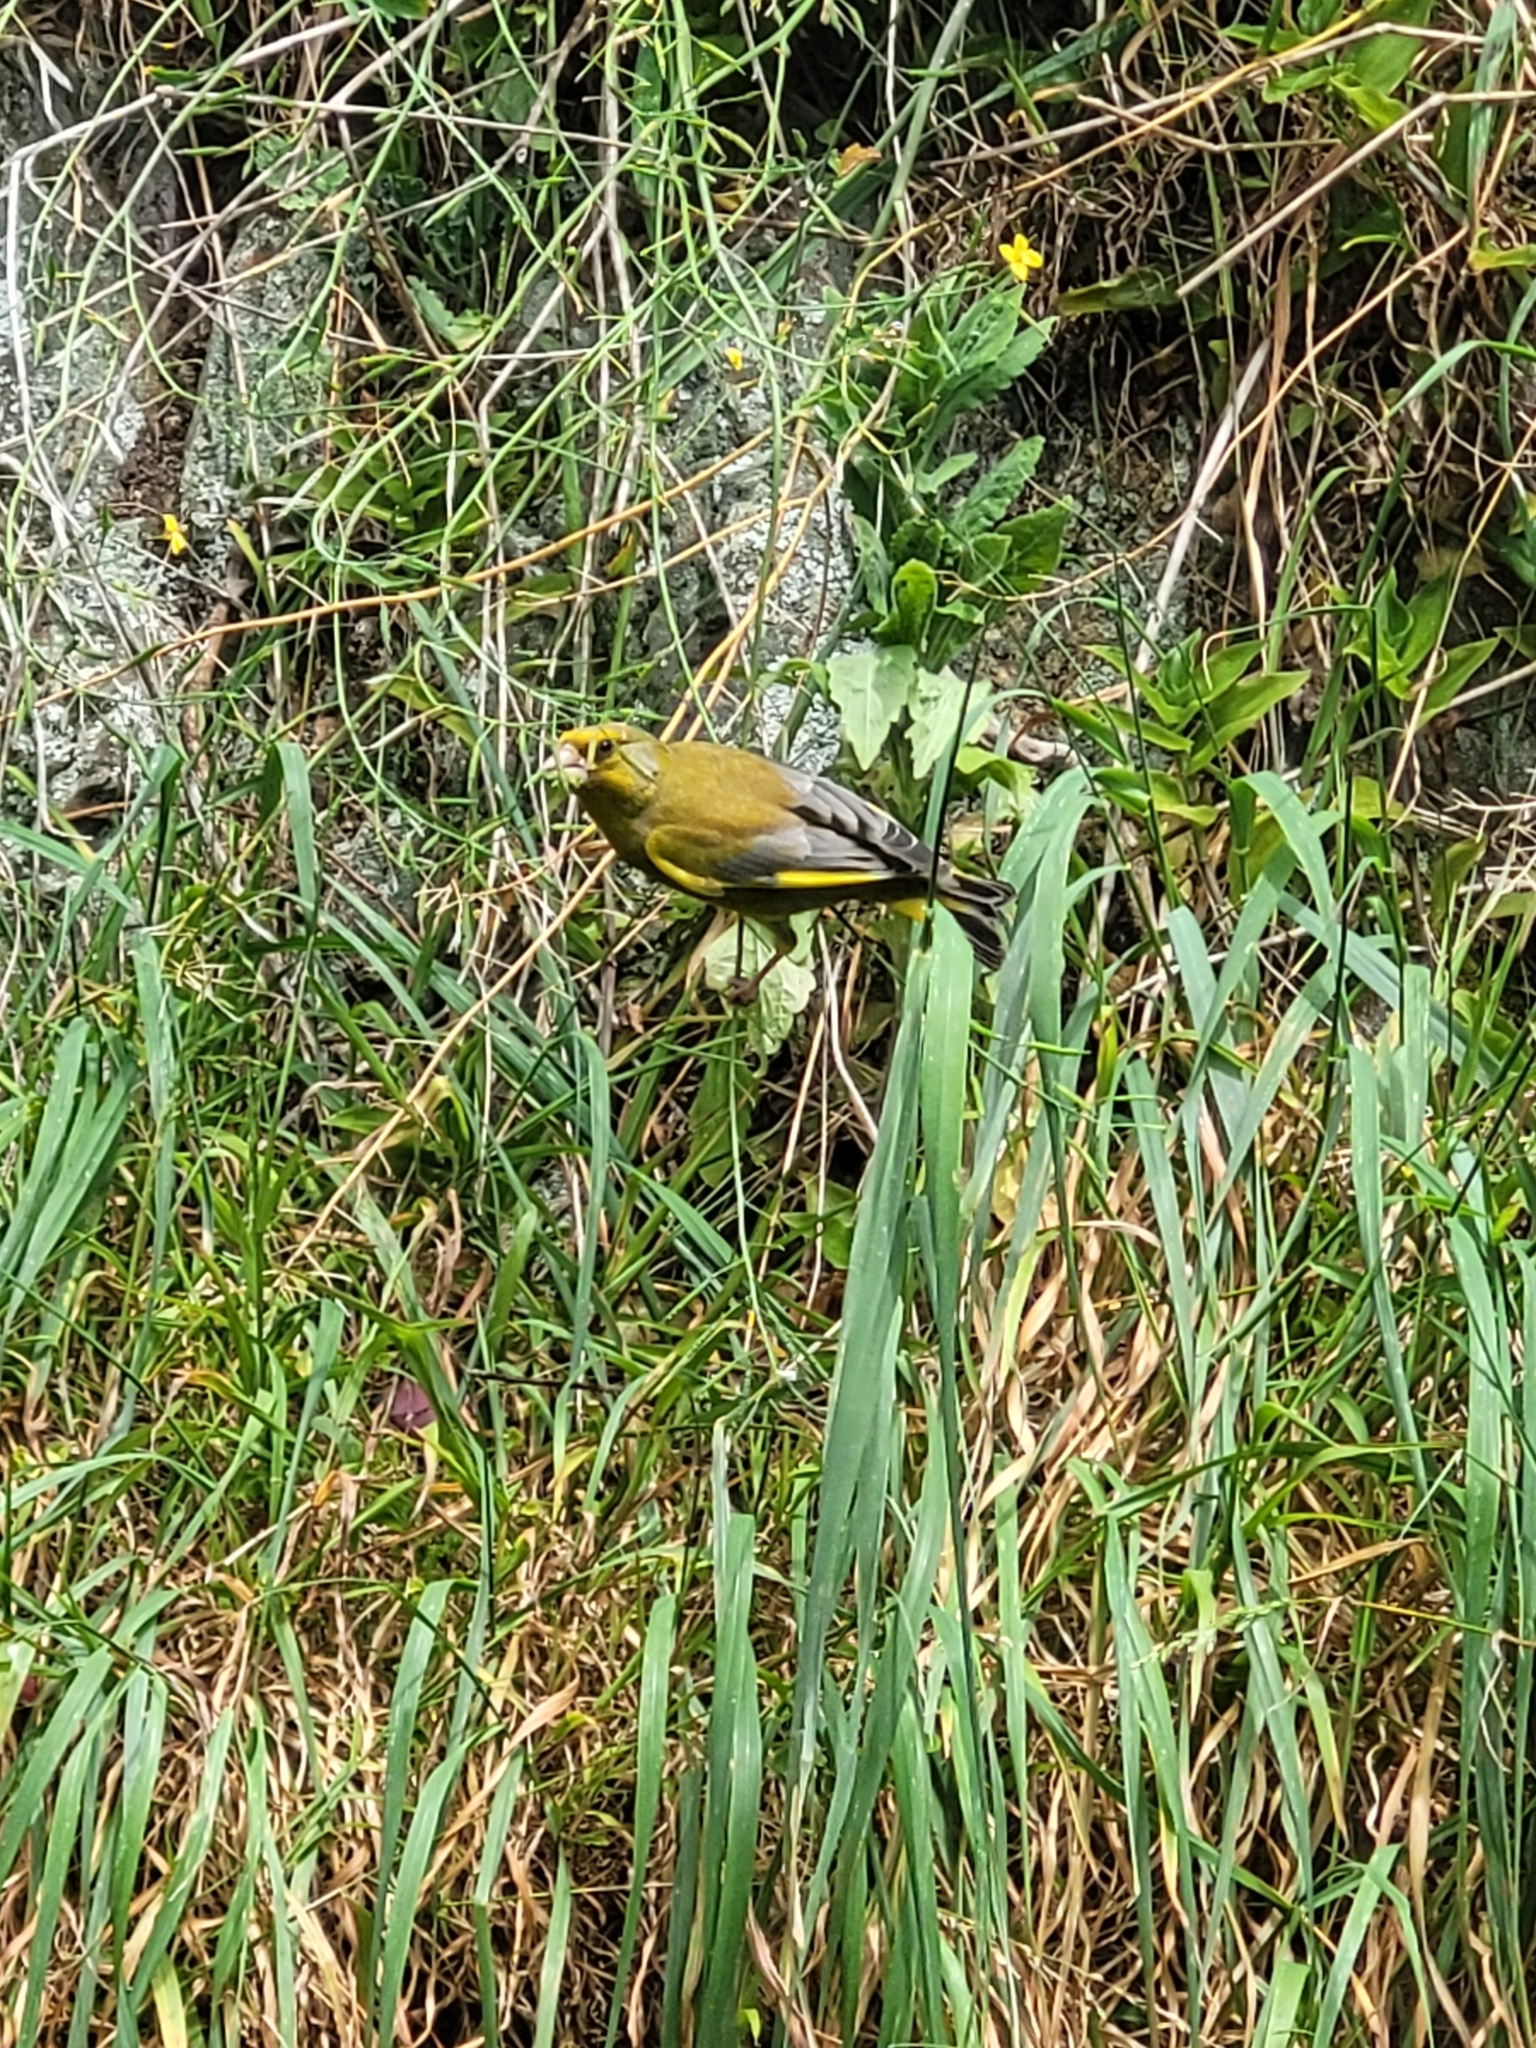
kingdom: Plantae
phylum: Tracheophyta
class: Liliopsida
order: Poales
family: Poaceae
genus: Chloris
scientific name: Chloris chloris
